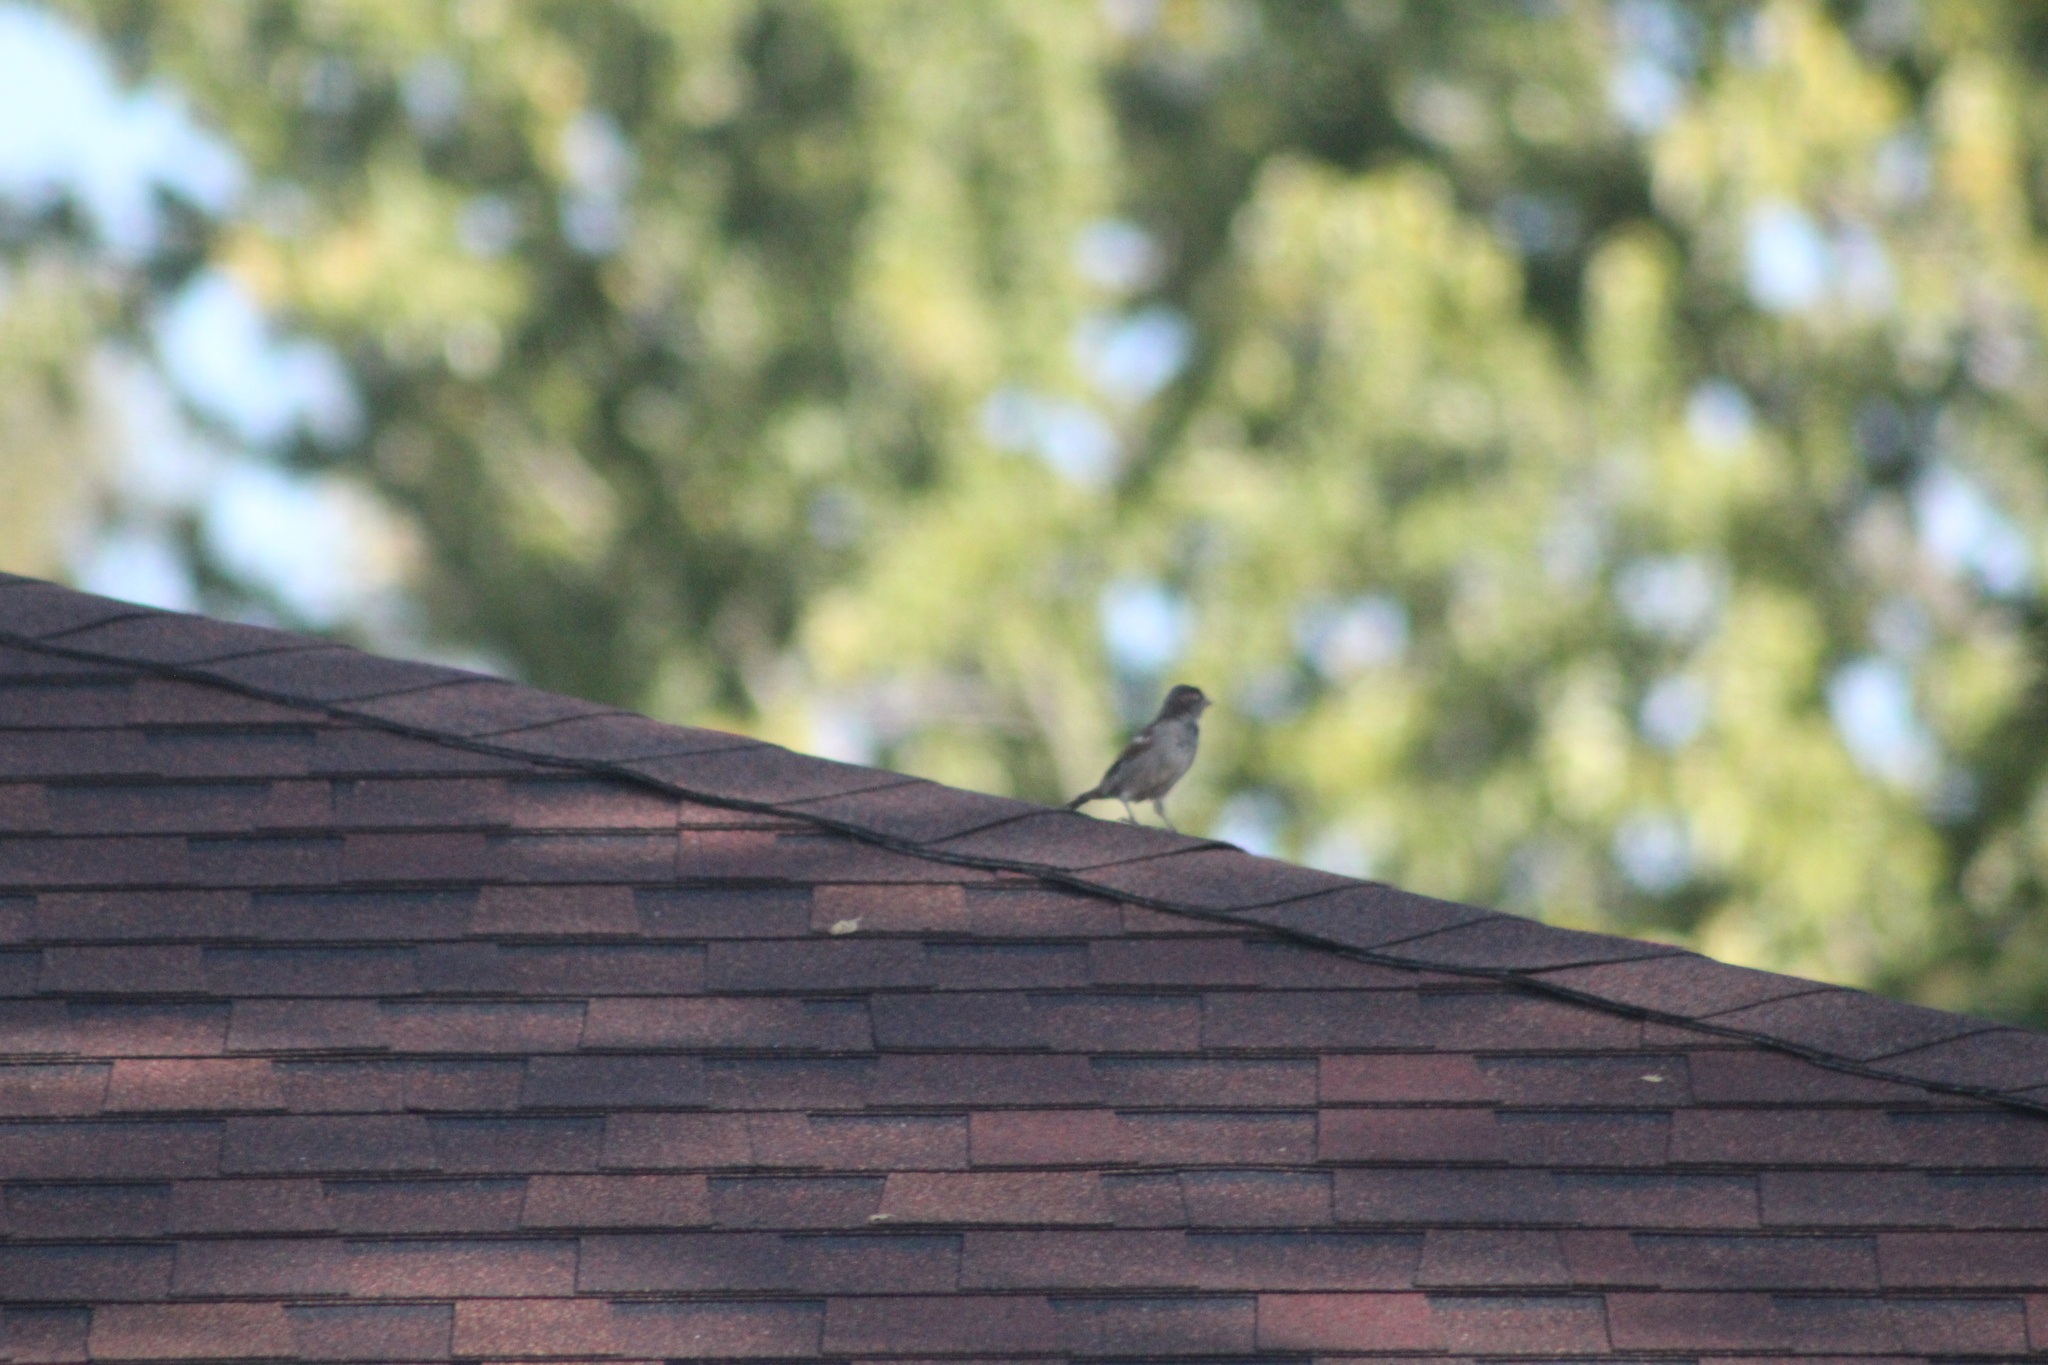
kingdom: Animalia
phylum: Chordata
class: Aves
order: Passeriformes
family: Passeridae
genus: Passer
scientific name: Passer domesticus
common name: House sparrow
